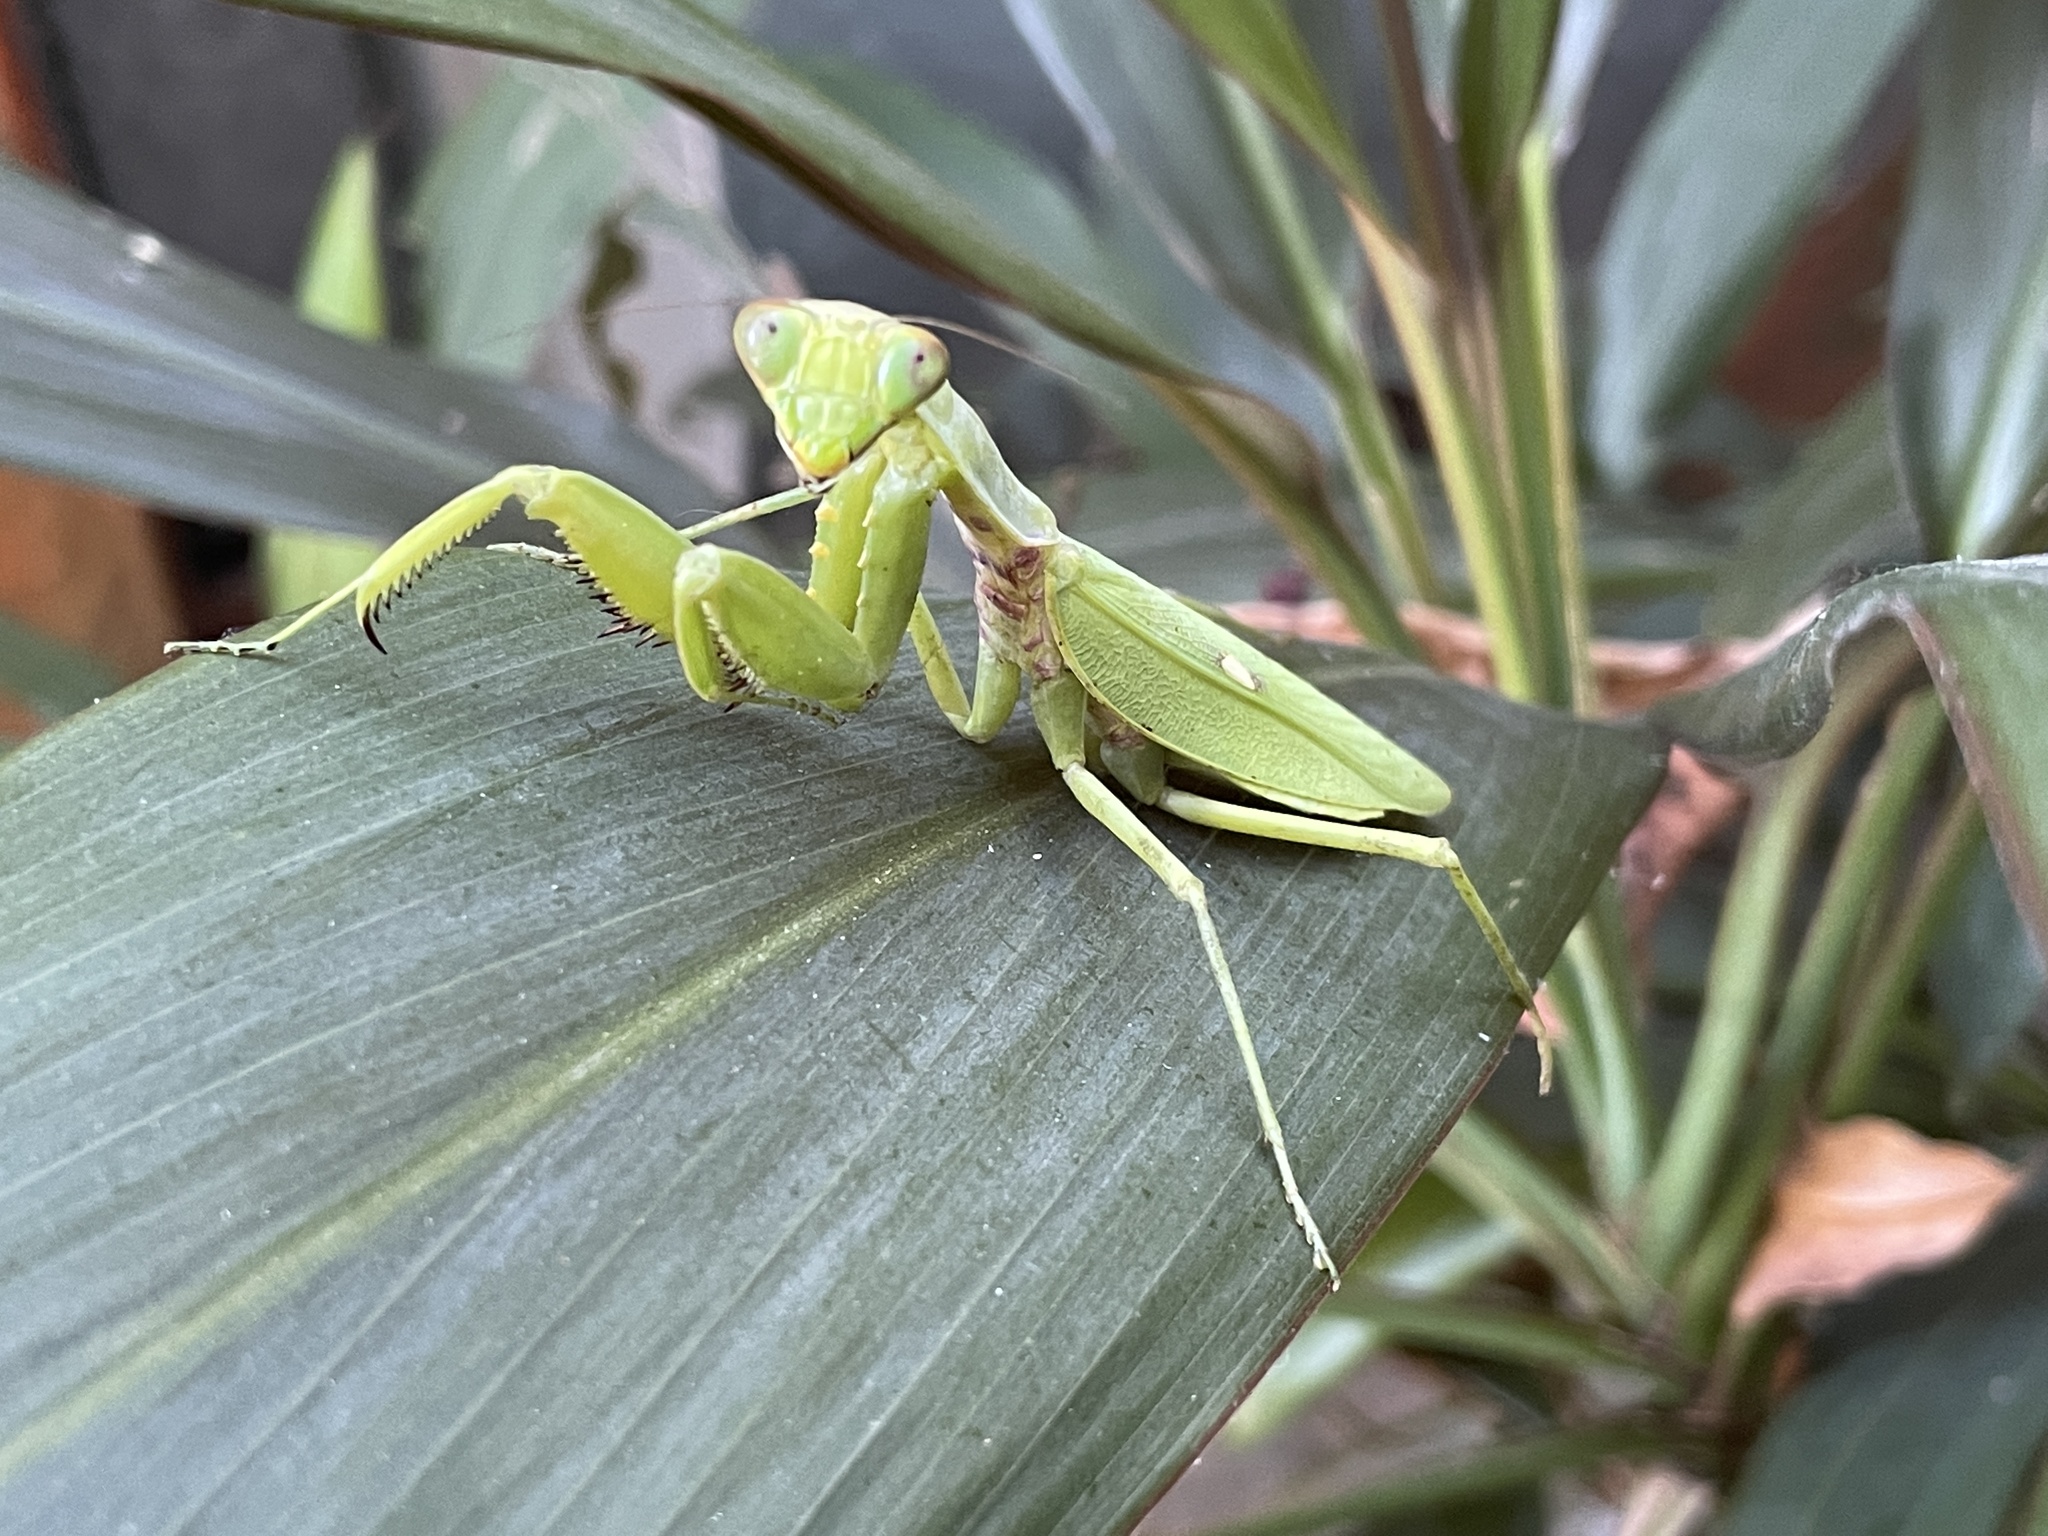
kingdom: Animalia
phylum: Arthropoda
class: Insecta
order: Mantodea
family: Mantidae
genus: Hierodula
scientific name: Hierodula patellifera
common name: Asian mantis
